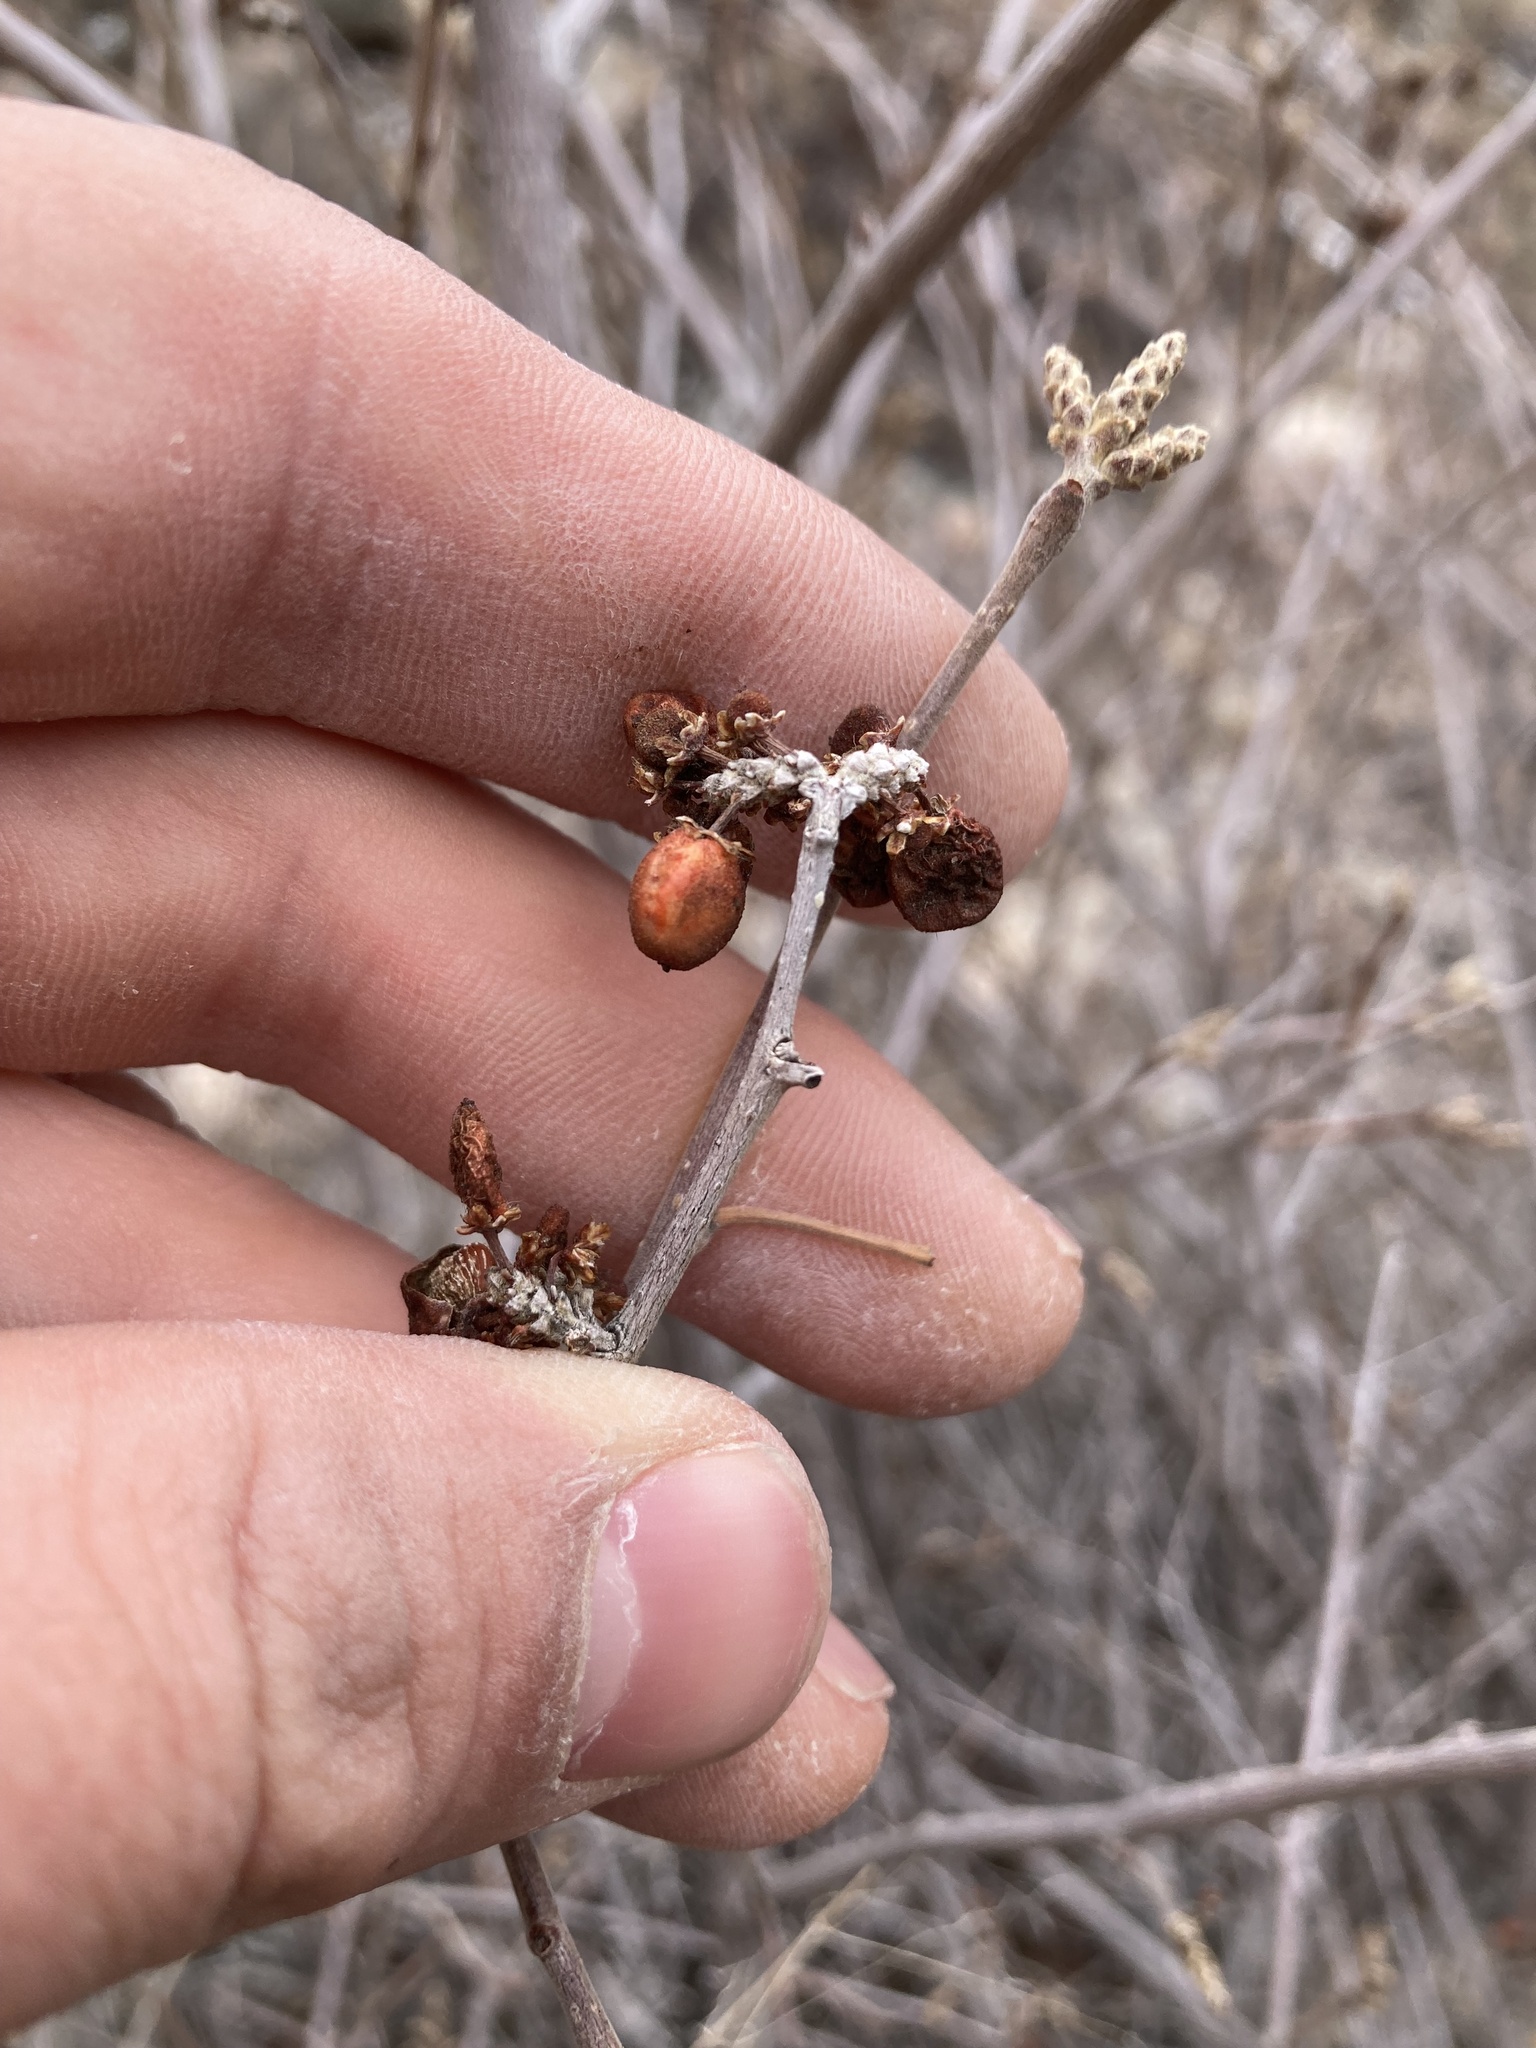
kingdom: Plantae
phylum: Tracheophyta
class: Magnoliopsida
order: Sapindales
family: Anacardiaceae
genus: Rhus
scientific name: Rhus trilobata
